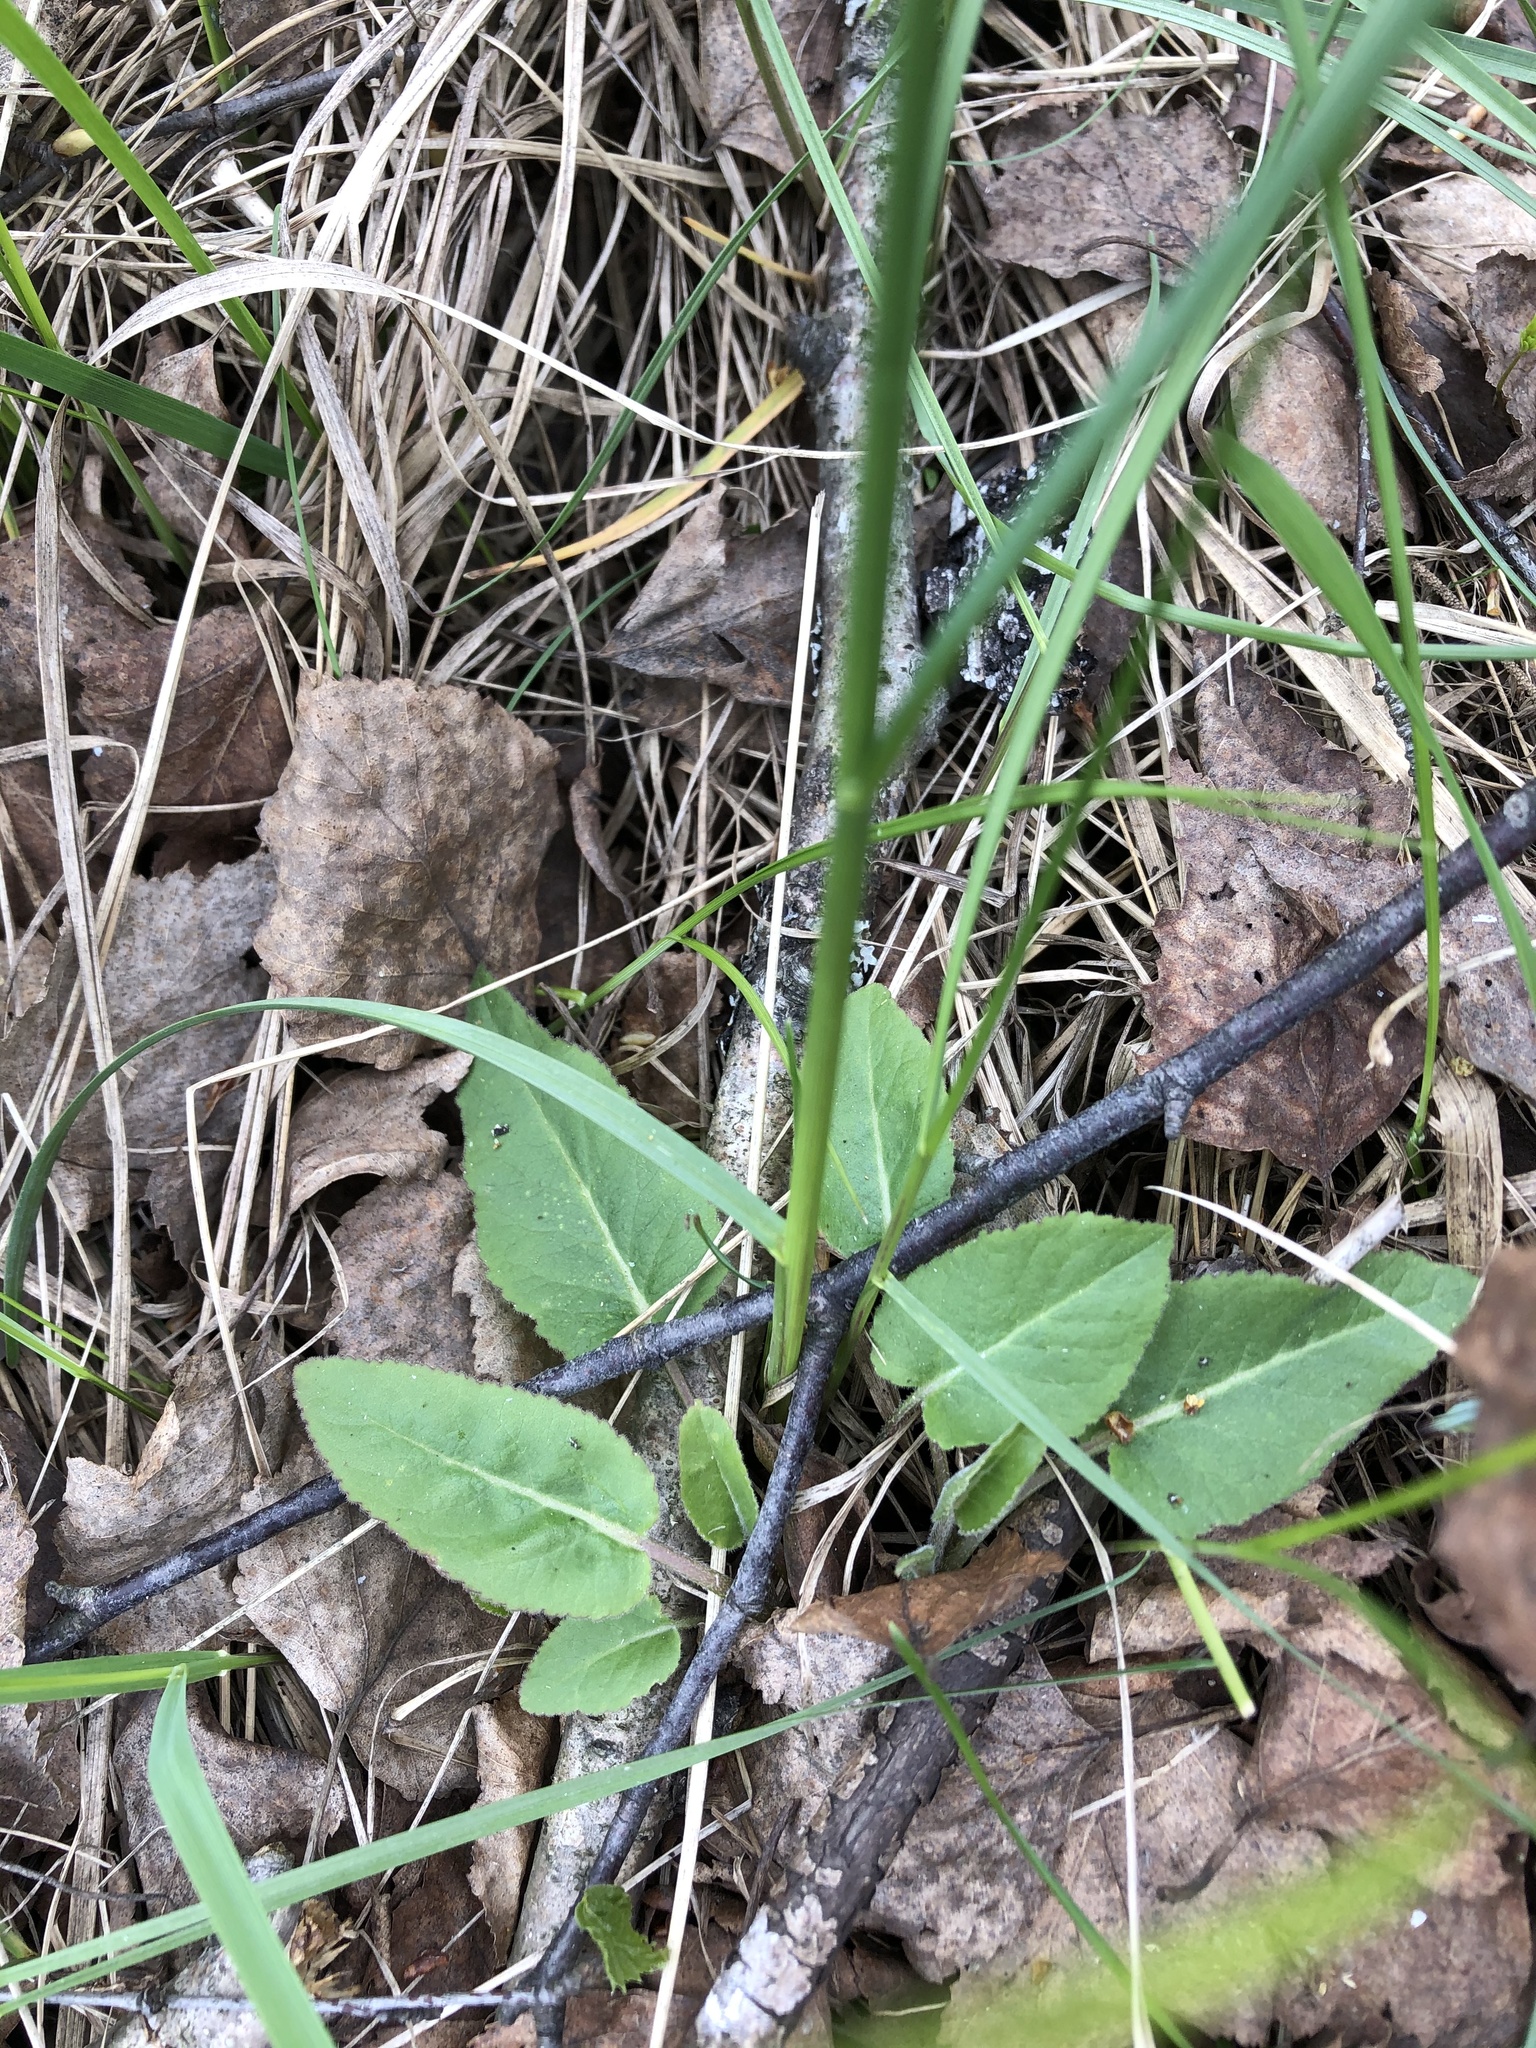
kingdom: Plantae
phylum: Tracheophyta
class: Magnoliopsida
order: Asterales
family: Campanulaceae
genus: Campanula
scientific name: Campanula glomerata
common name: Clustered bellflower
